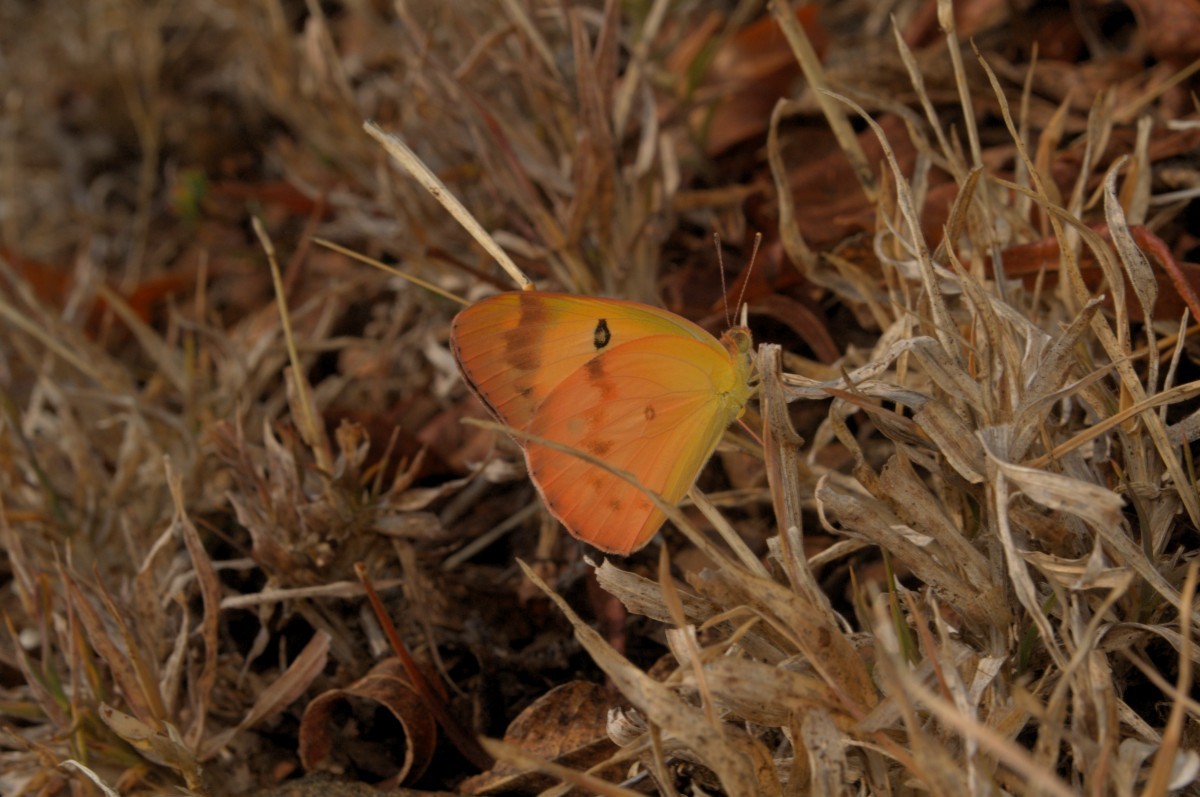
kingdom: Animalia
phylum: Arthropoda
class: Insecta
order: Lepidoptera
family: Pieridae
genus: Colotis
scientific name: Colotis fausta
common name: Large salmon arab
